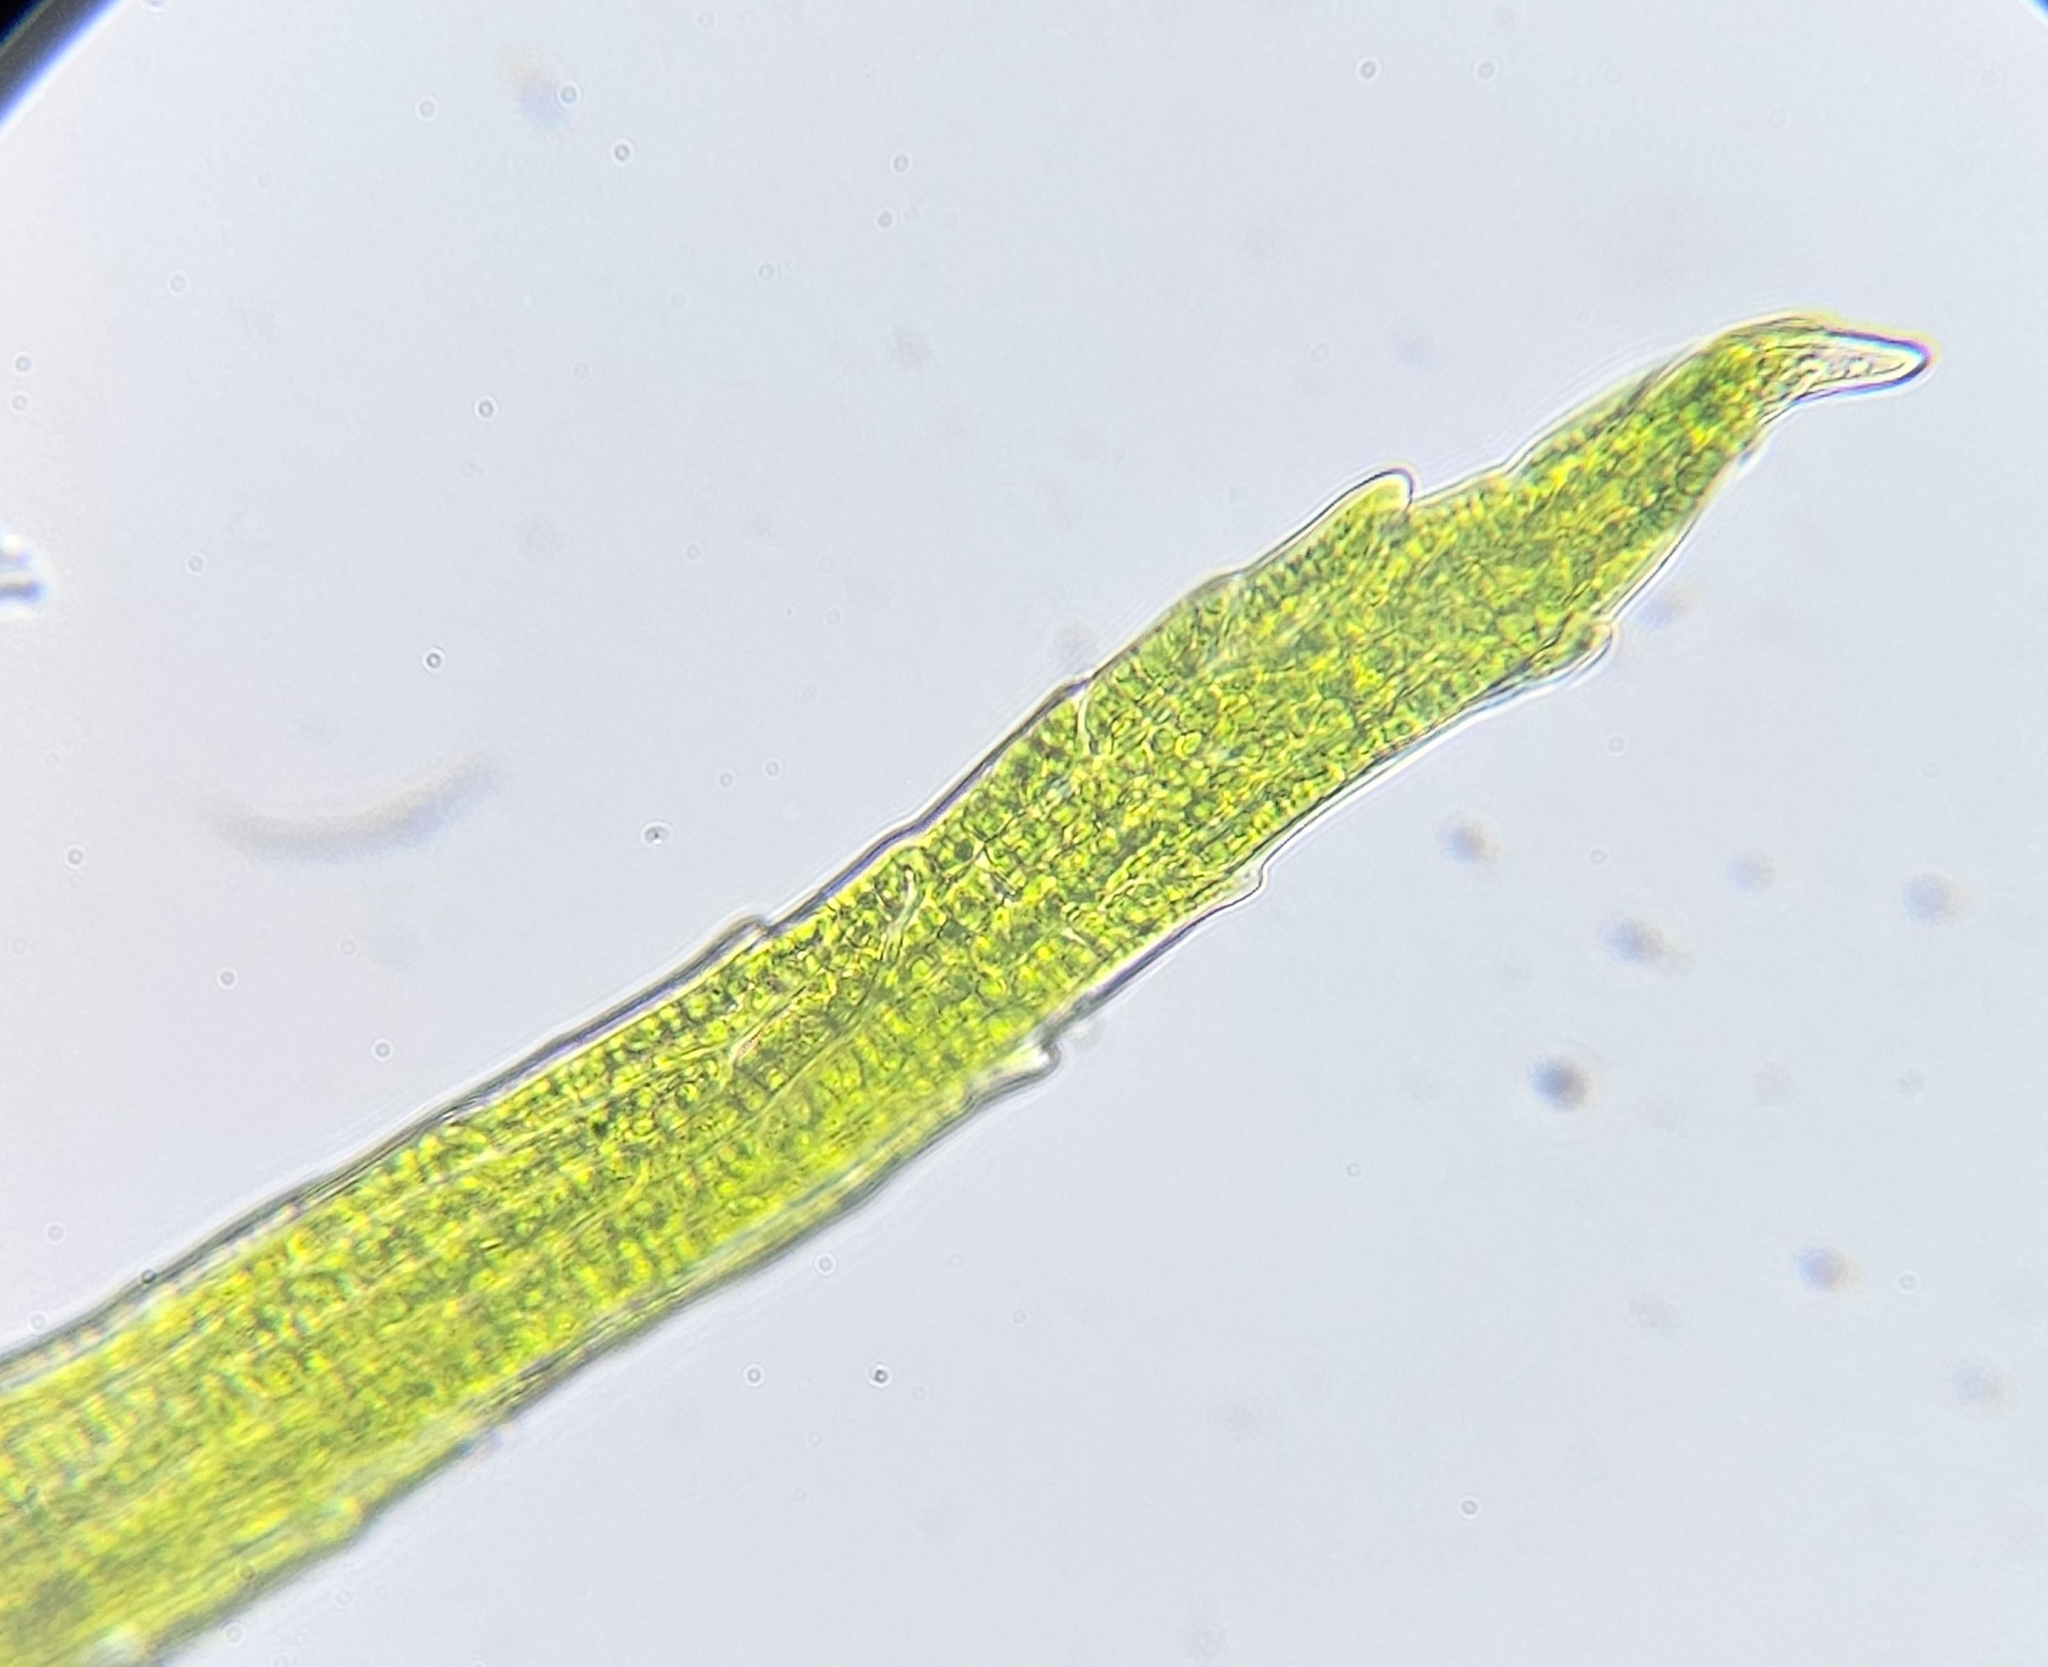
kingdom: Plantae
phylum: Bryophyta
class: Bryopsida
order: Dicranales
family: Dicranellaceae
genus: Dicranella
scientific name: Dicranella heteromalla
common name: Silky forklet moss
